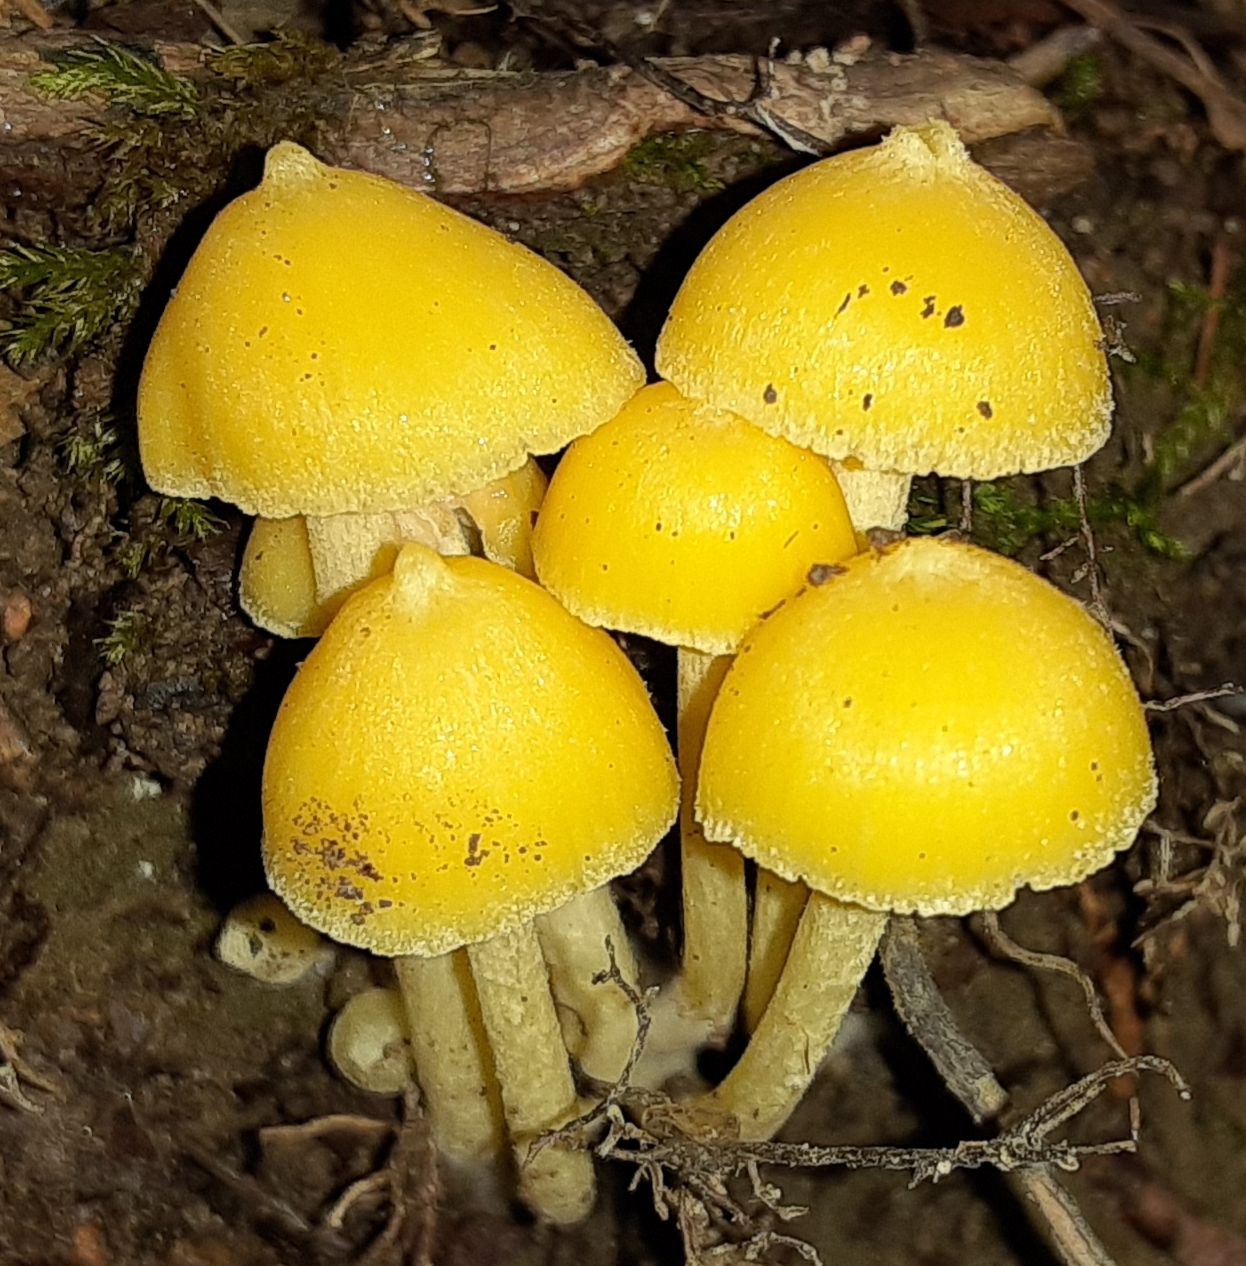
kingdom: Fungi
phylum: Basidiomycota
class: Agaricomycetes
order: Agaricales
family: Entolomataceae
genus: Entoloma
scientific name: Entoloma murrayi
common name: Yellow unicorn entoloma
